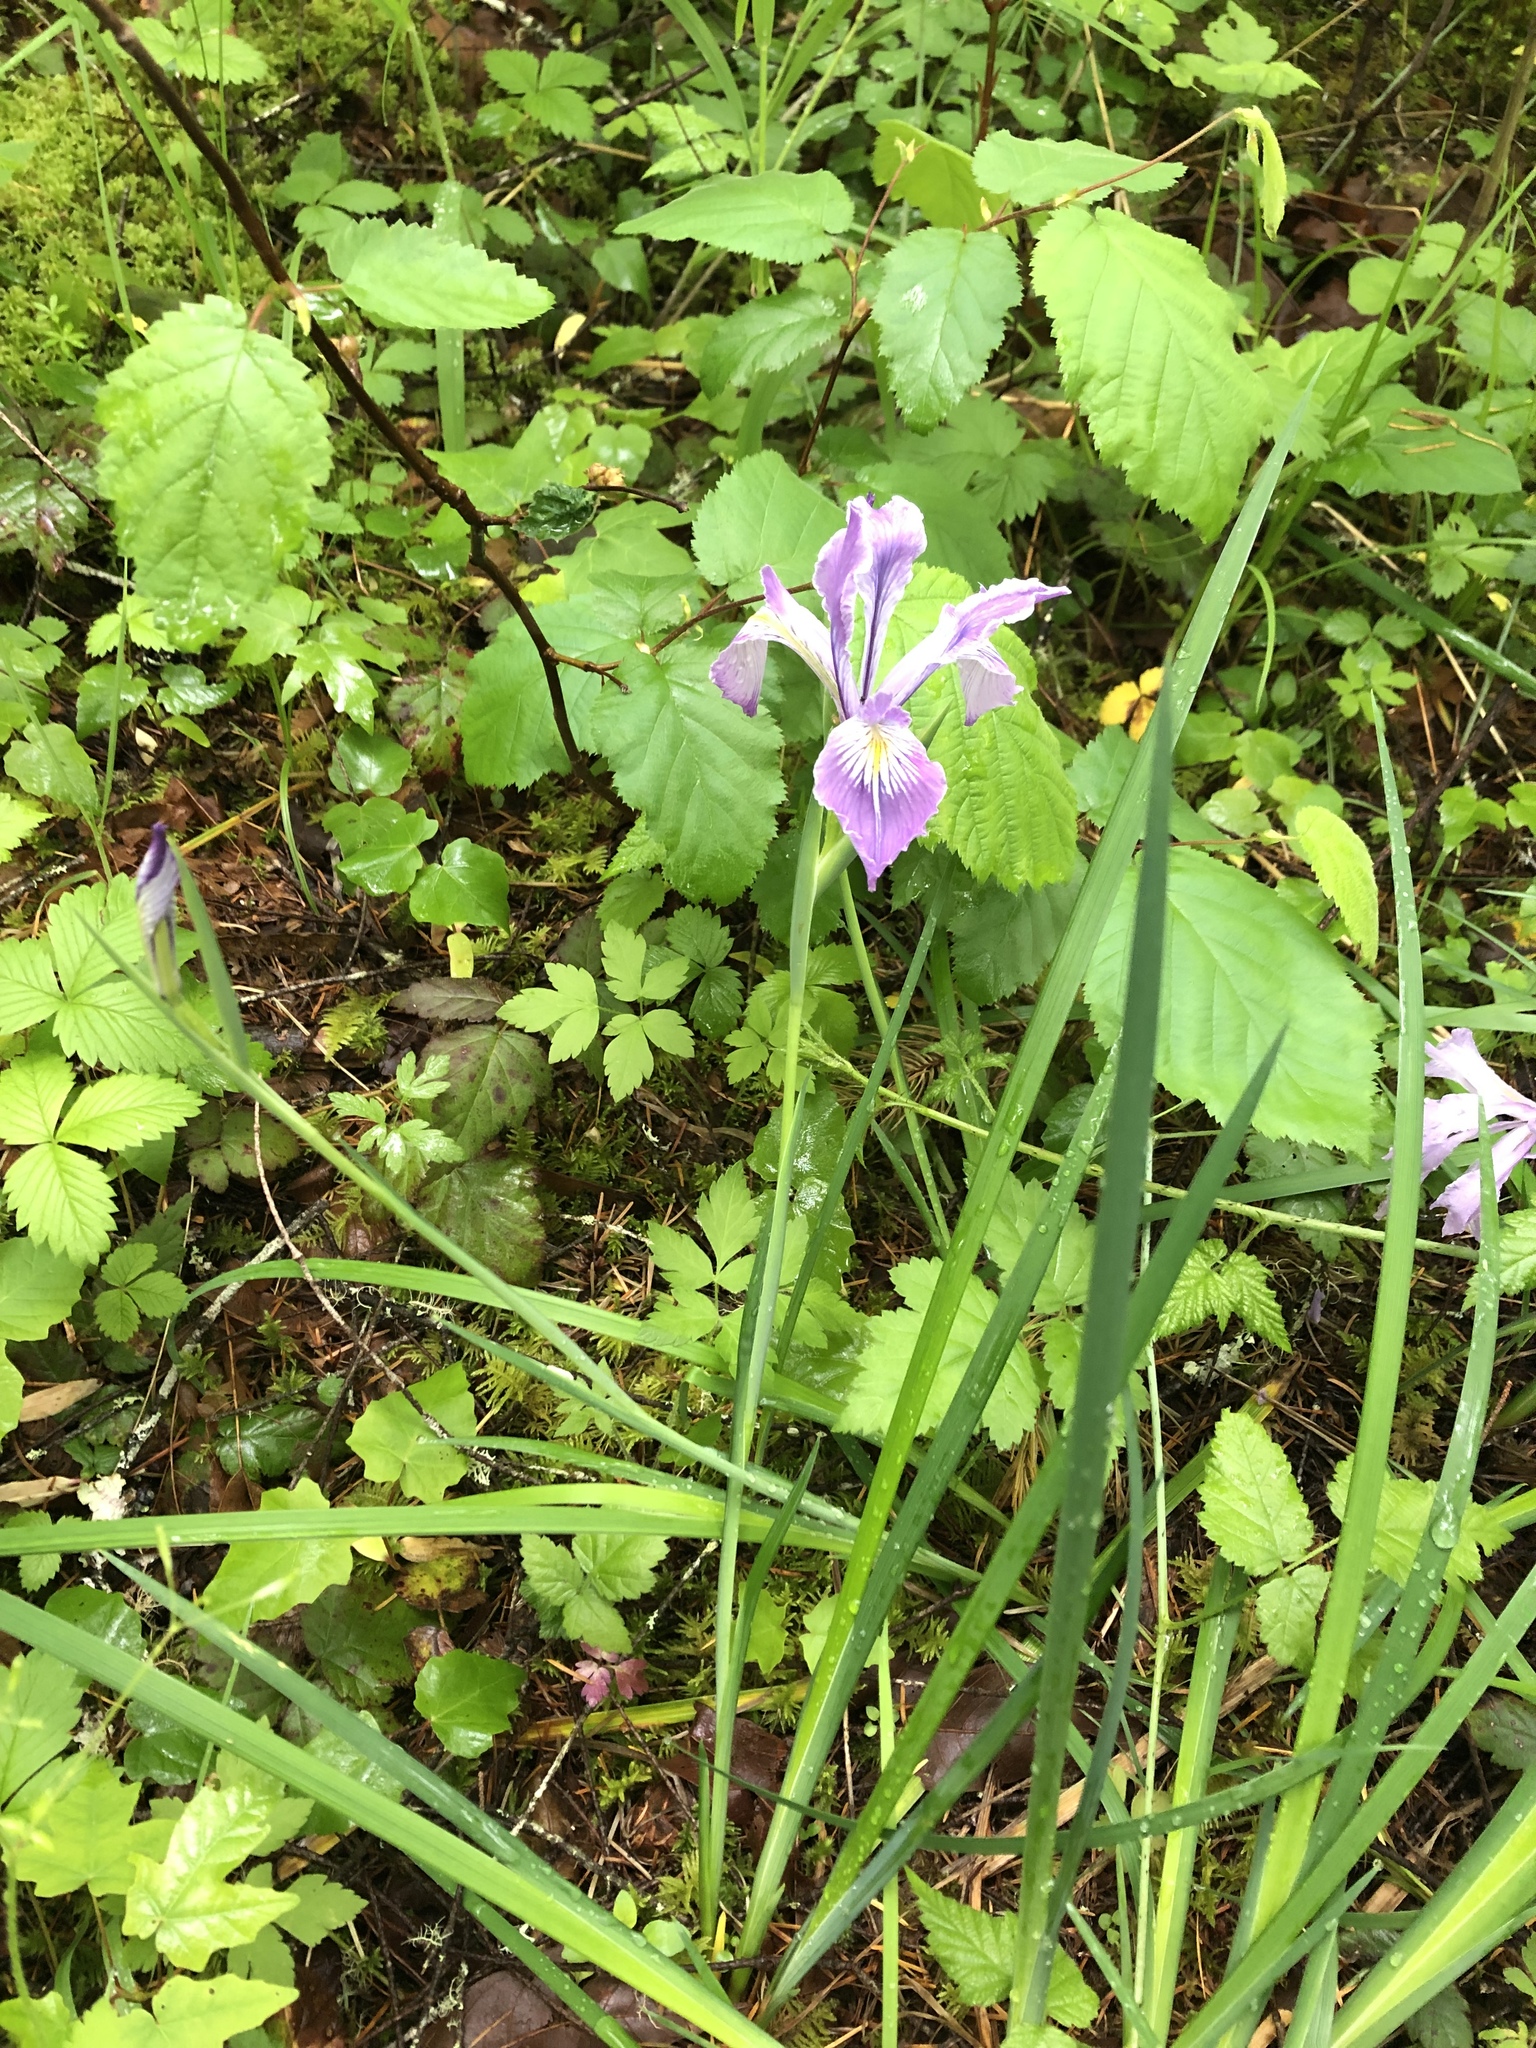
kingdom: Plantae
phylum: Tracheophyta
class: Liliopsida
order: Asparagales
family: Iridaceae
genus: Iris
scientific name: Iris tenax
